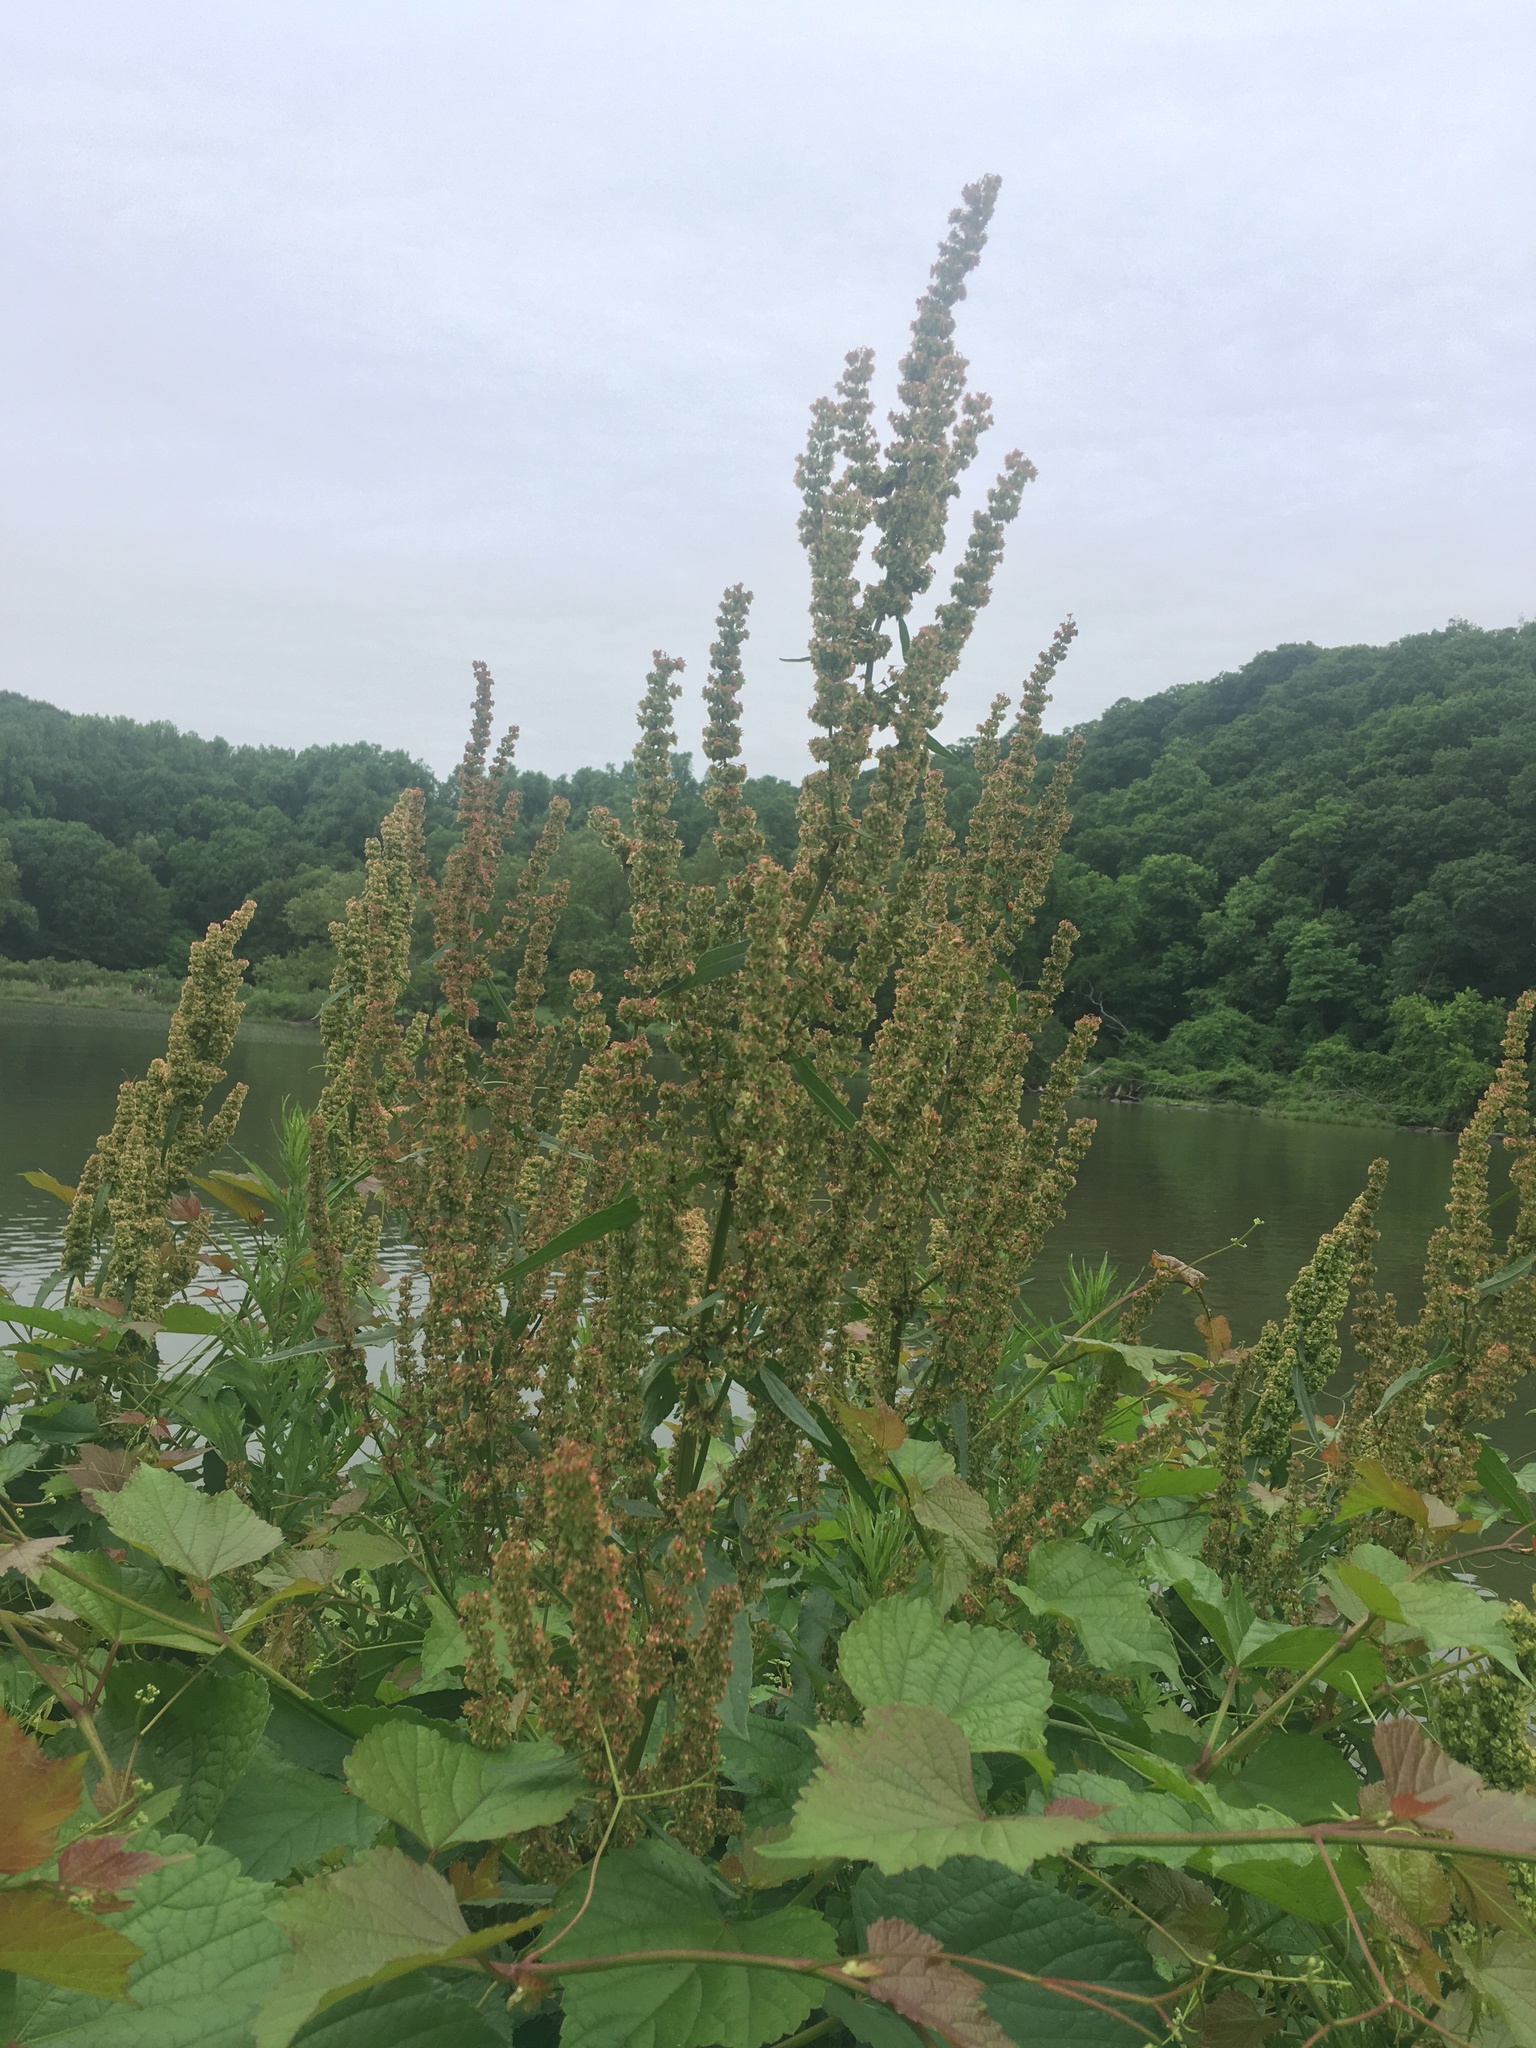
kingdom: Plantae
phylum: Tracheophyta
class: Magnoliopsida
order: Caryophyllales
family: Polygonaceae
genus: Rumex
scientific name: Rumex obtusifolius
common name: Bitter dock
